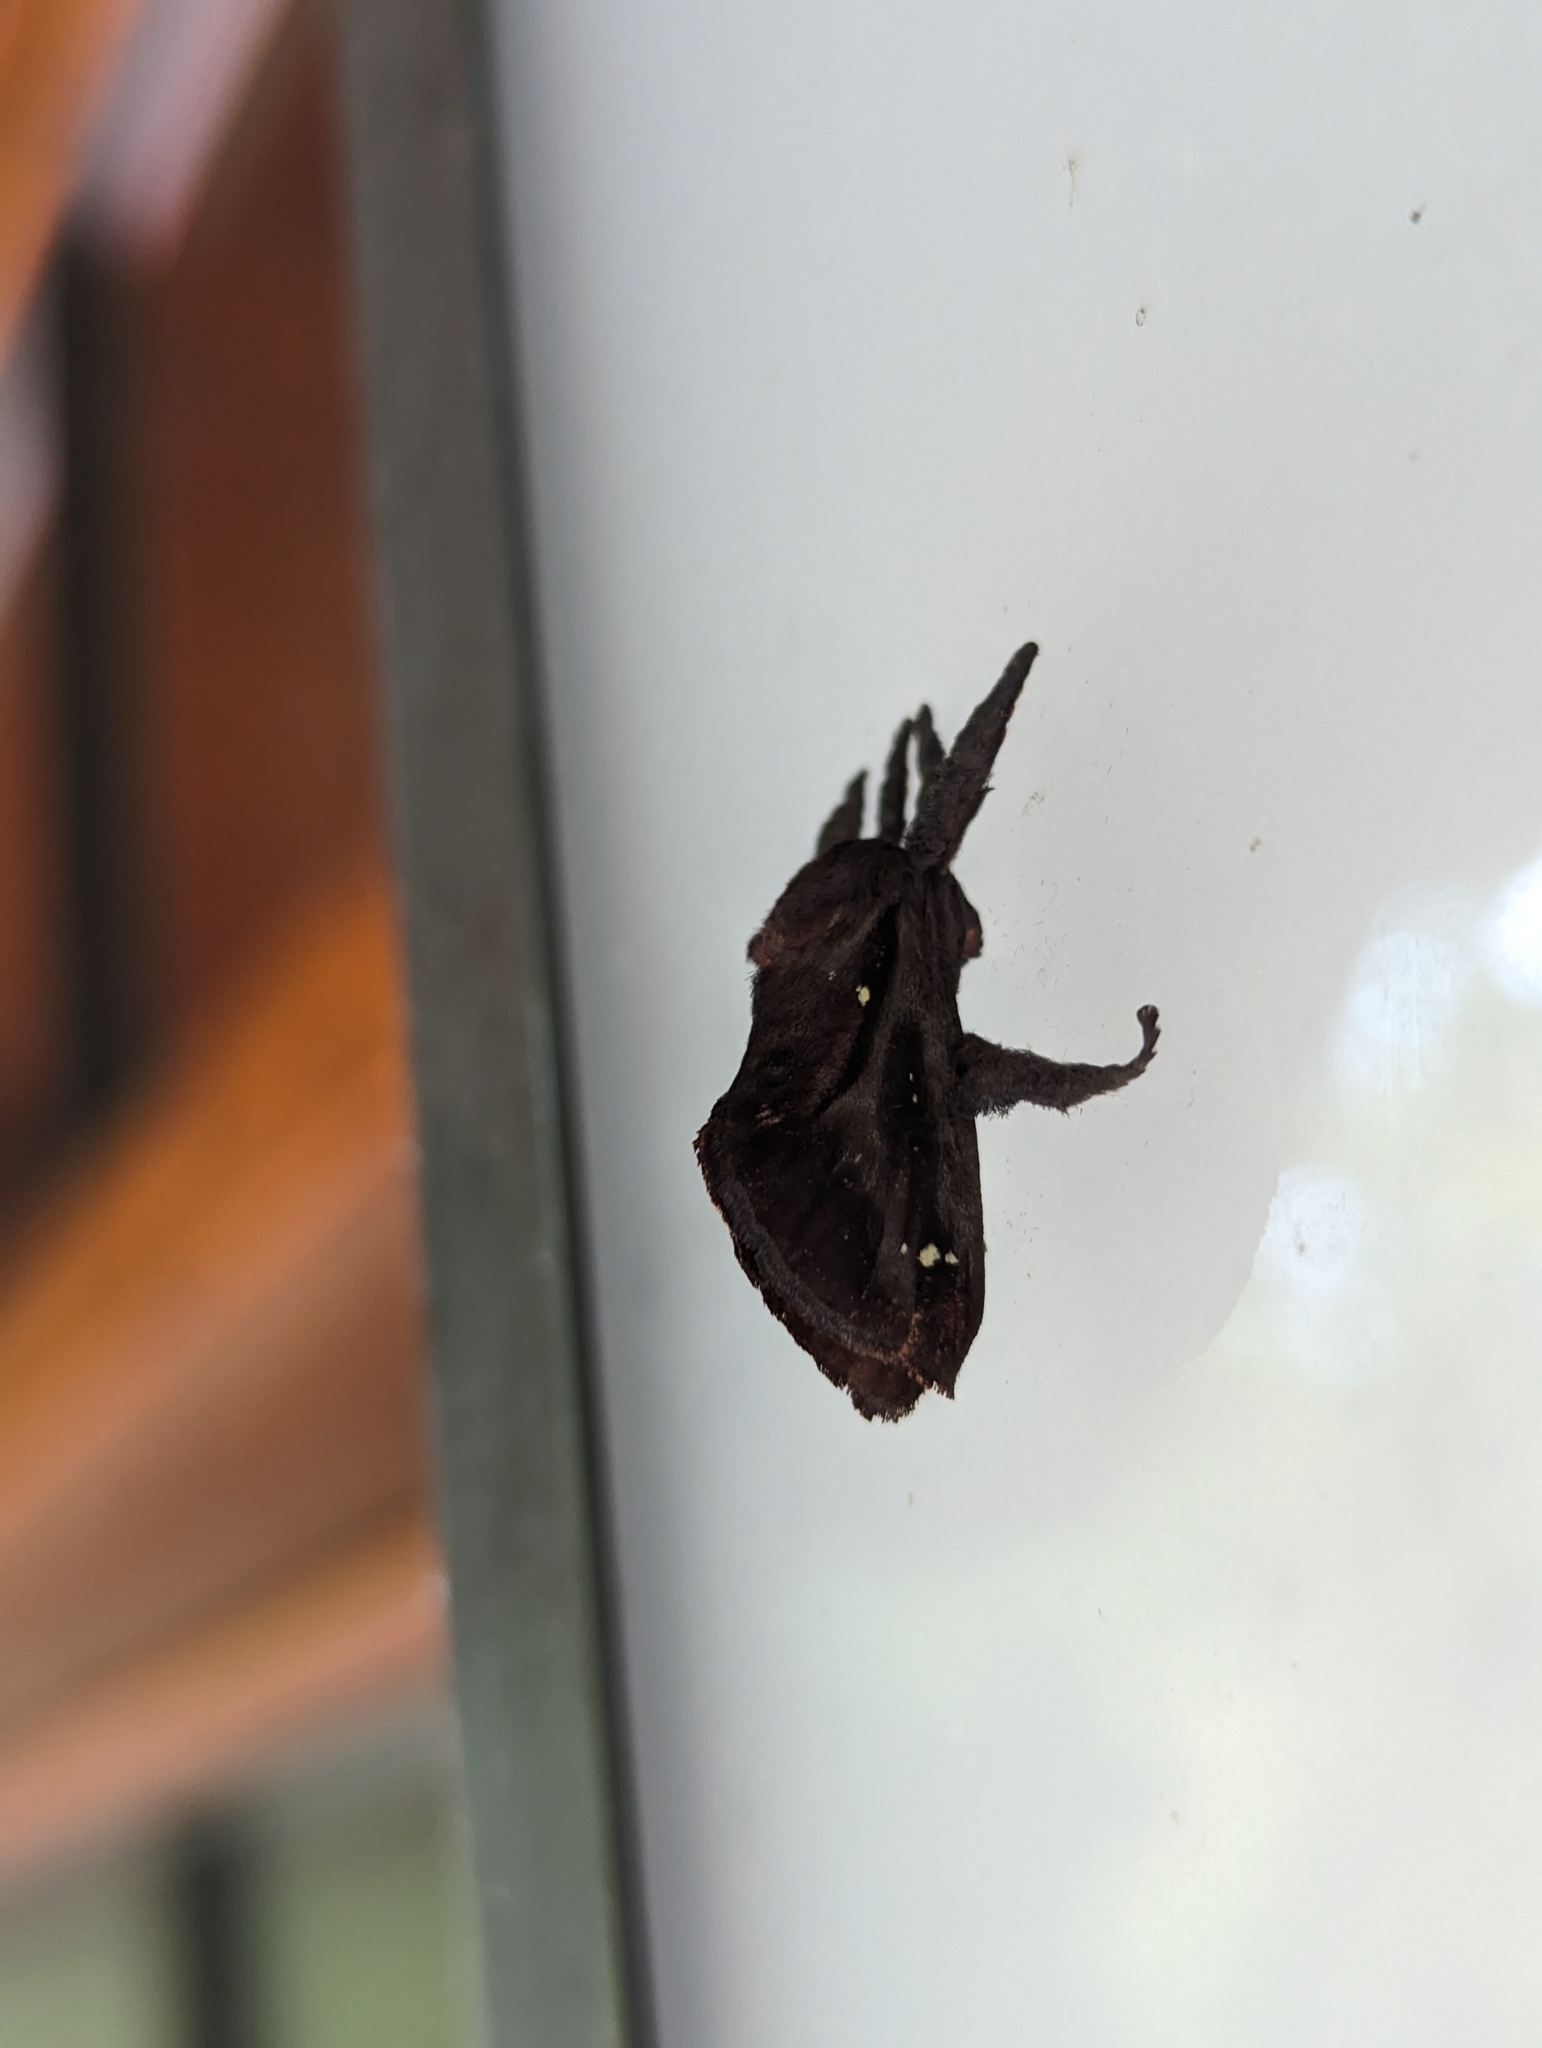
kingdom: Animalia
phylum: Arthropoda
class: Insecta
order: Lepidoptera
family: Limacodidae
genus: Acharia
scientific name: Acharia stimulea
